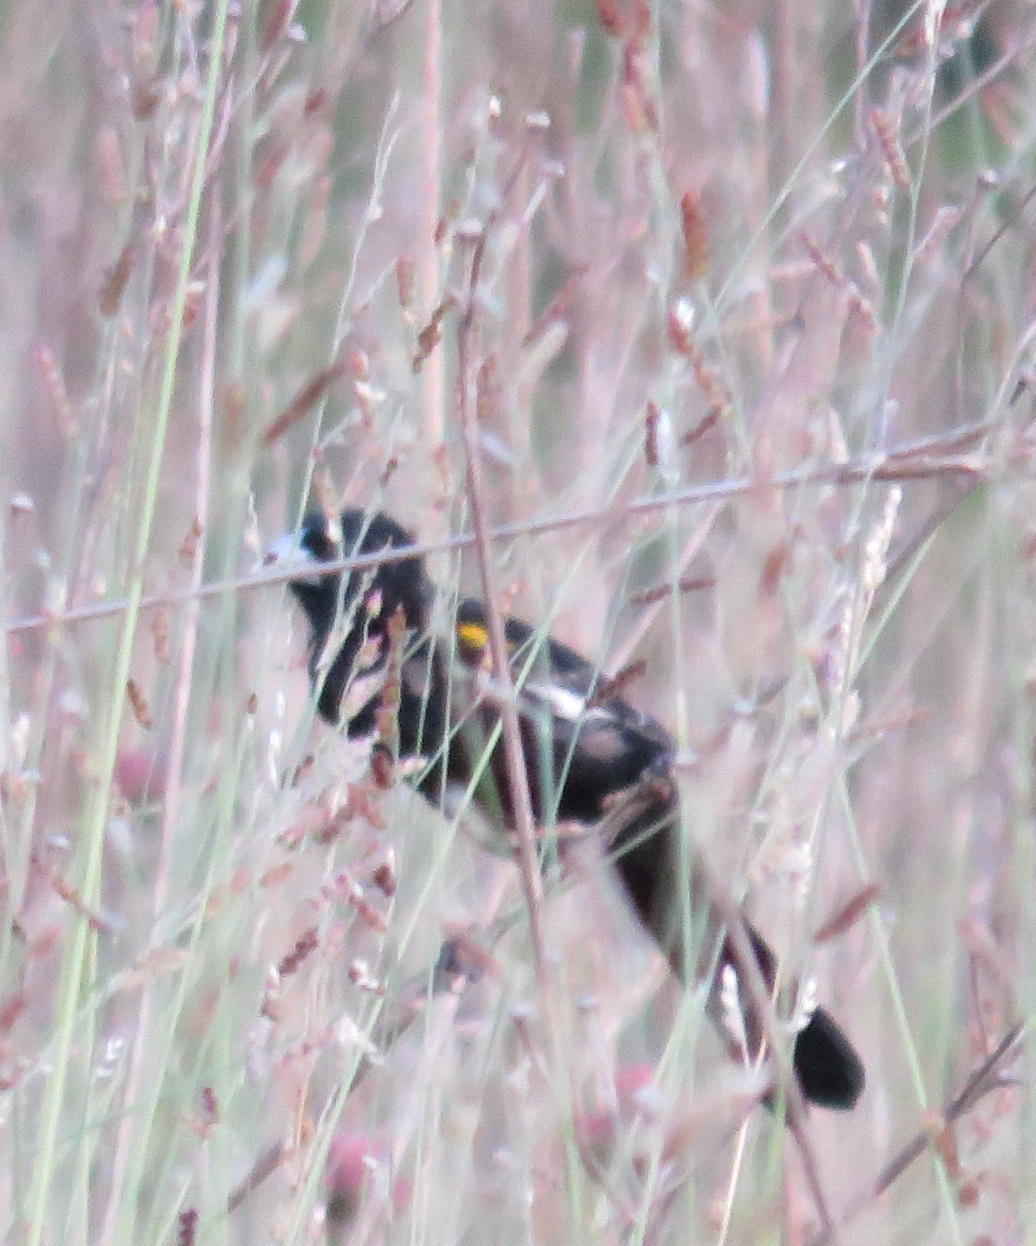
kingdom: Animalia
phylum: Chordata
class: Aves
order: Passeriformes
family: Ploceidae
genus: Euplectes
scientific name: Euplectes albonotatus
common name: White-winged widowbird
